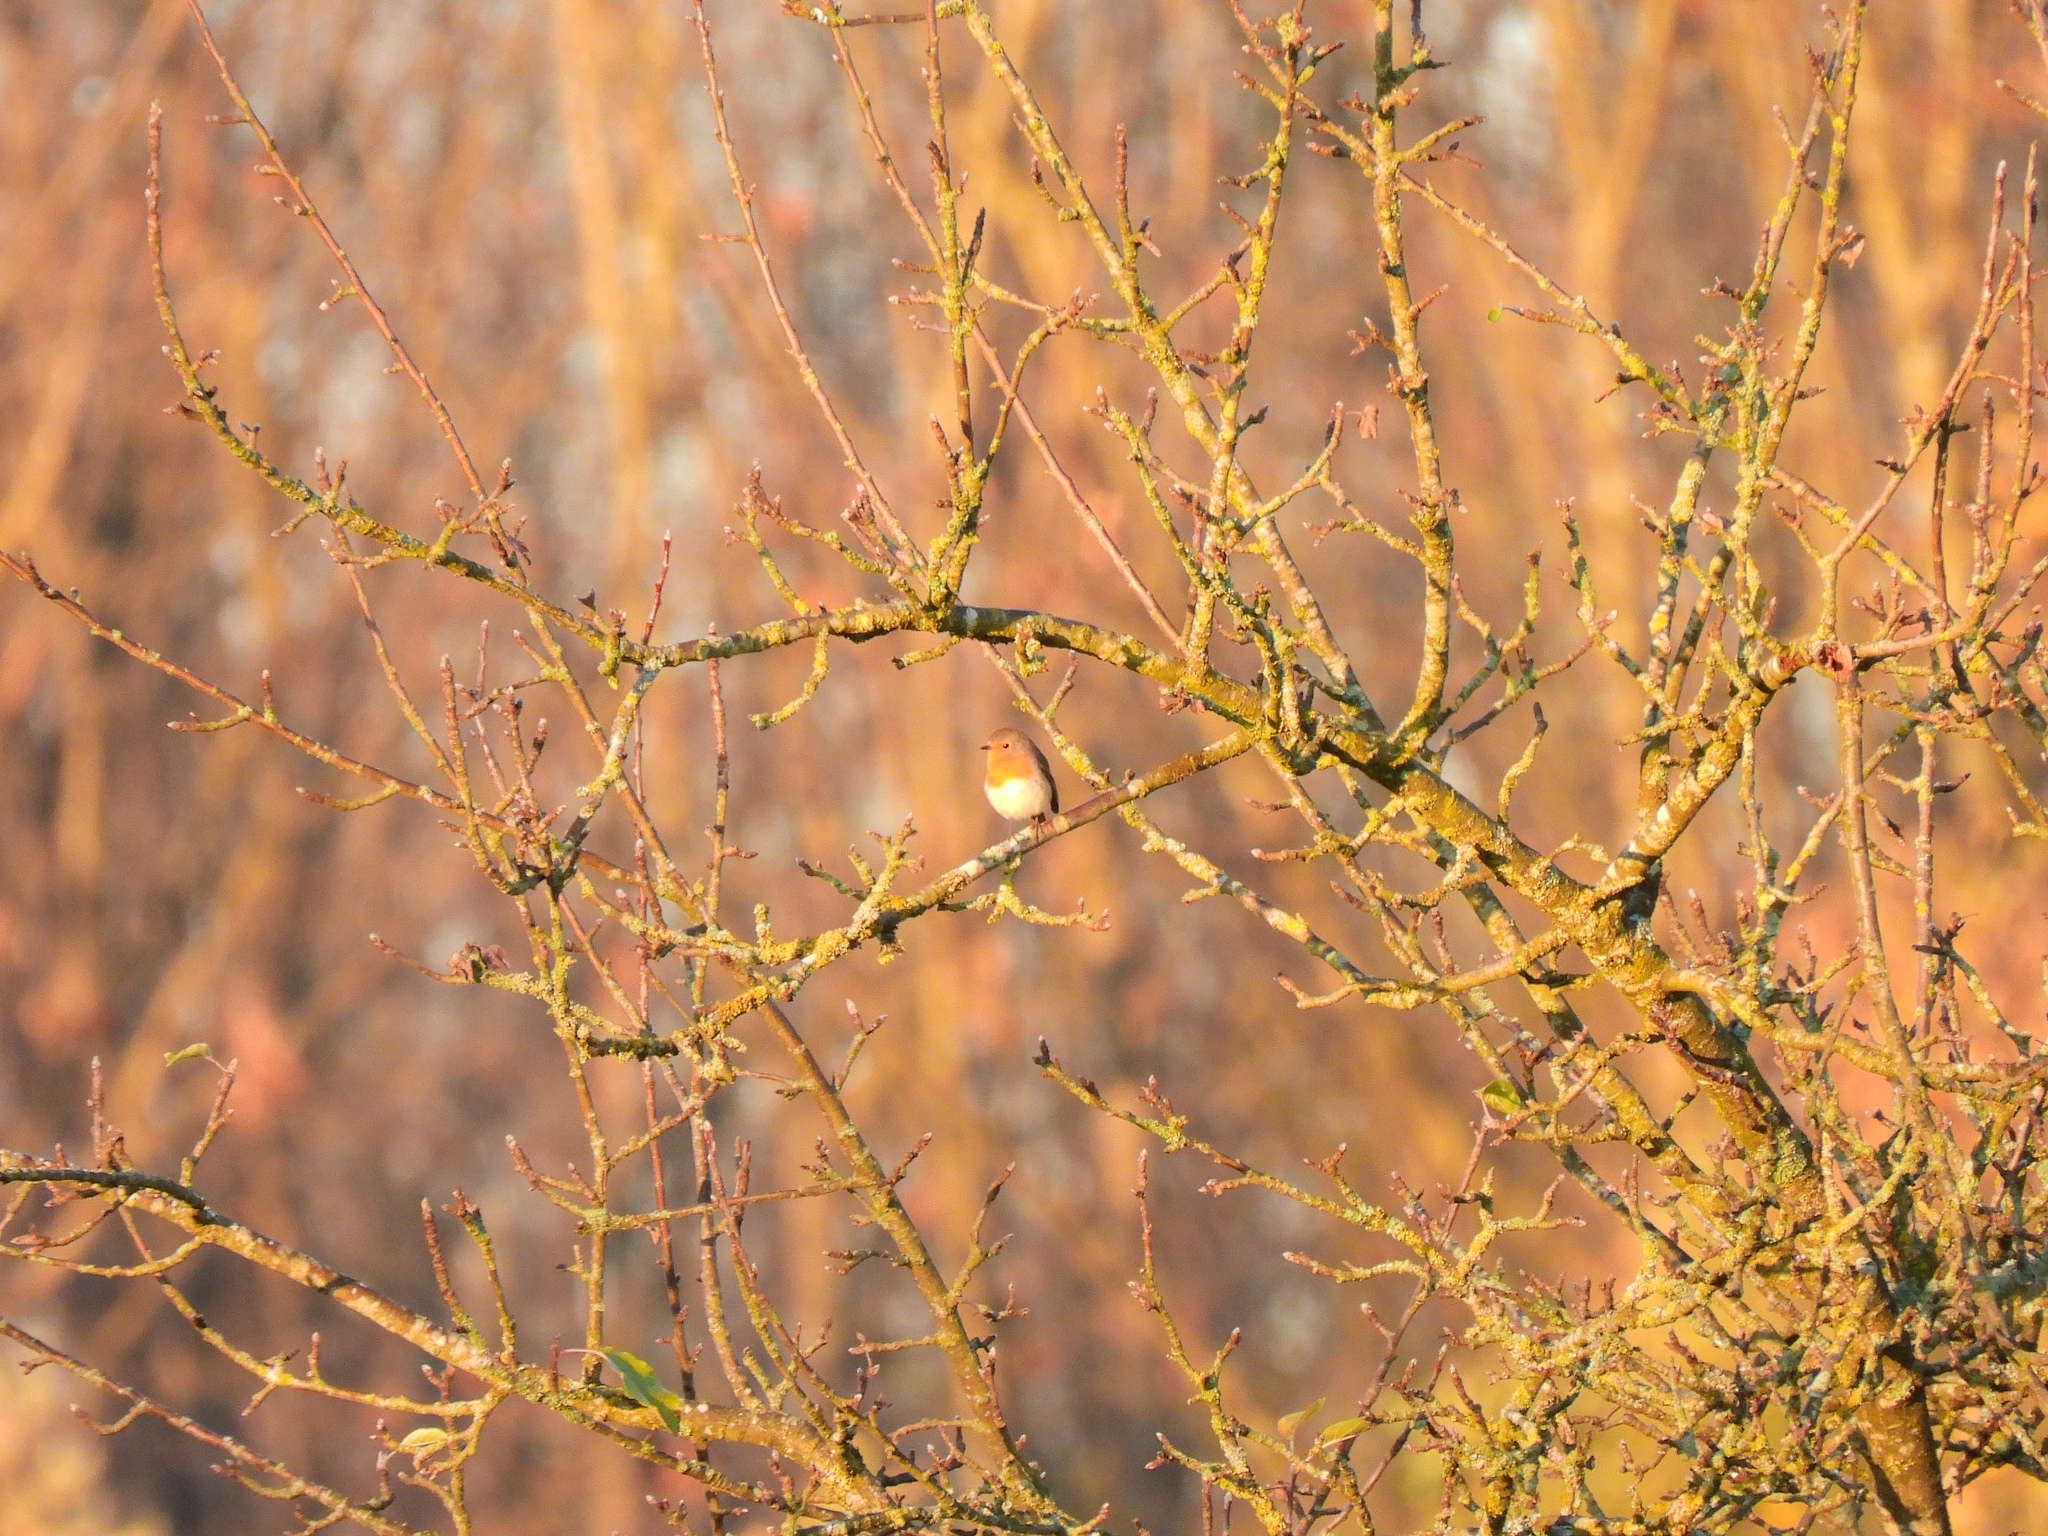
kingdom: Animalia
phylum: Chordata
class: Aves
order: Passeriformes
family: Muscicapidae
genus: Erithacus
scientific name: Erithacus rubecula
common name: European robin
